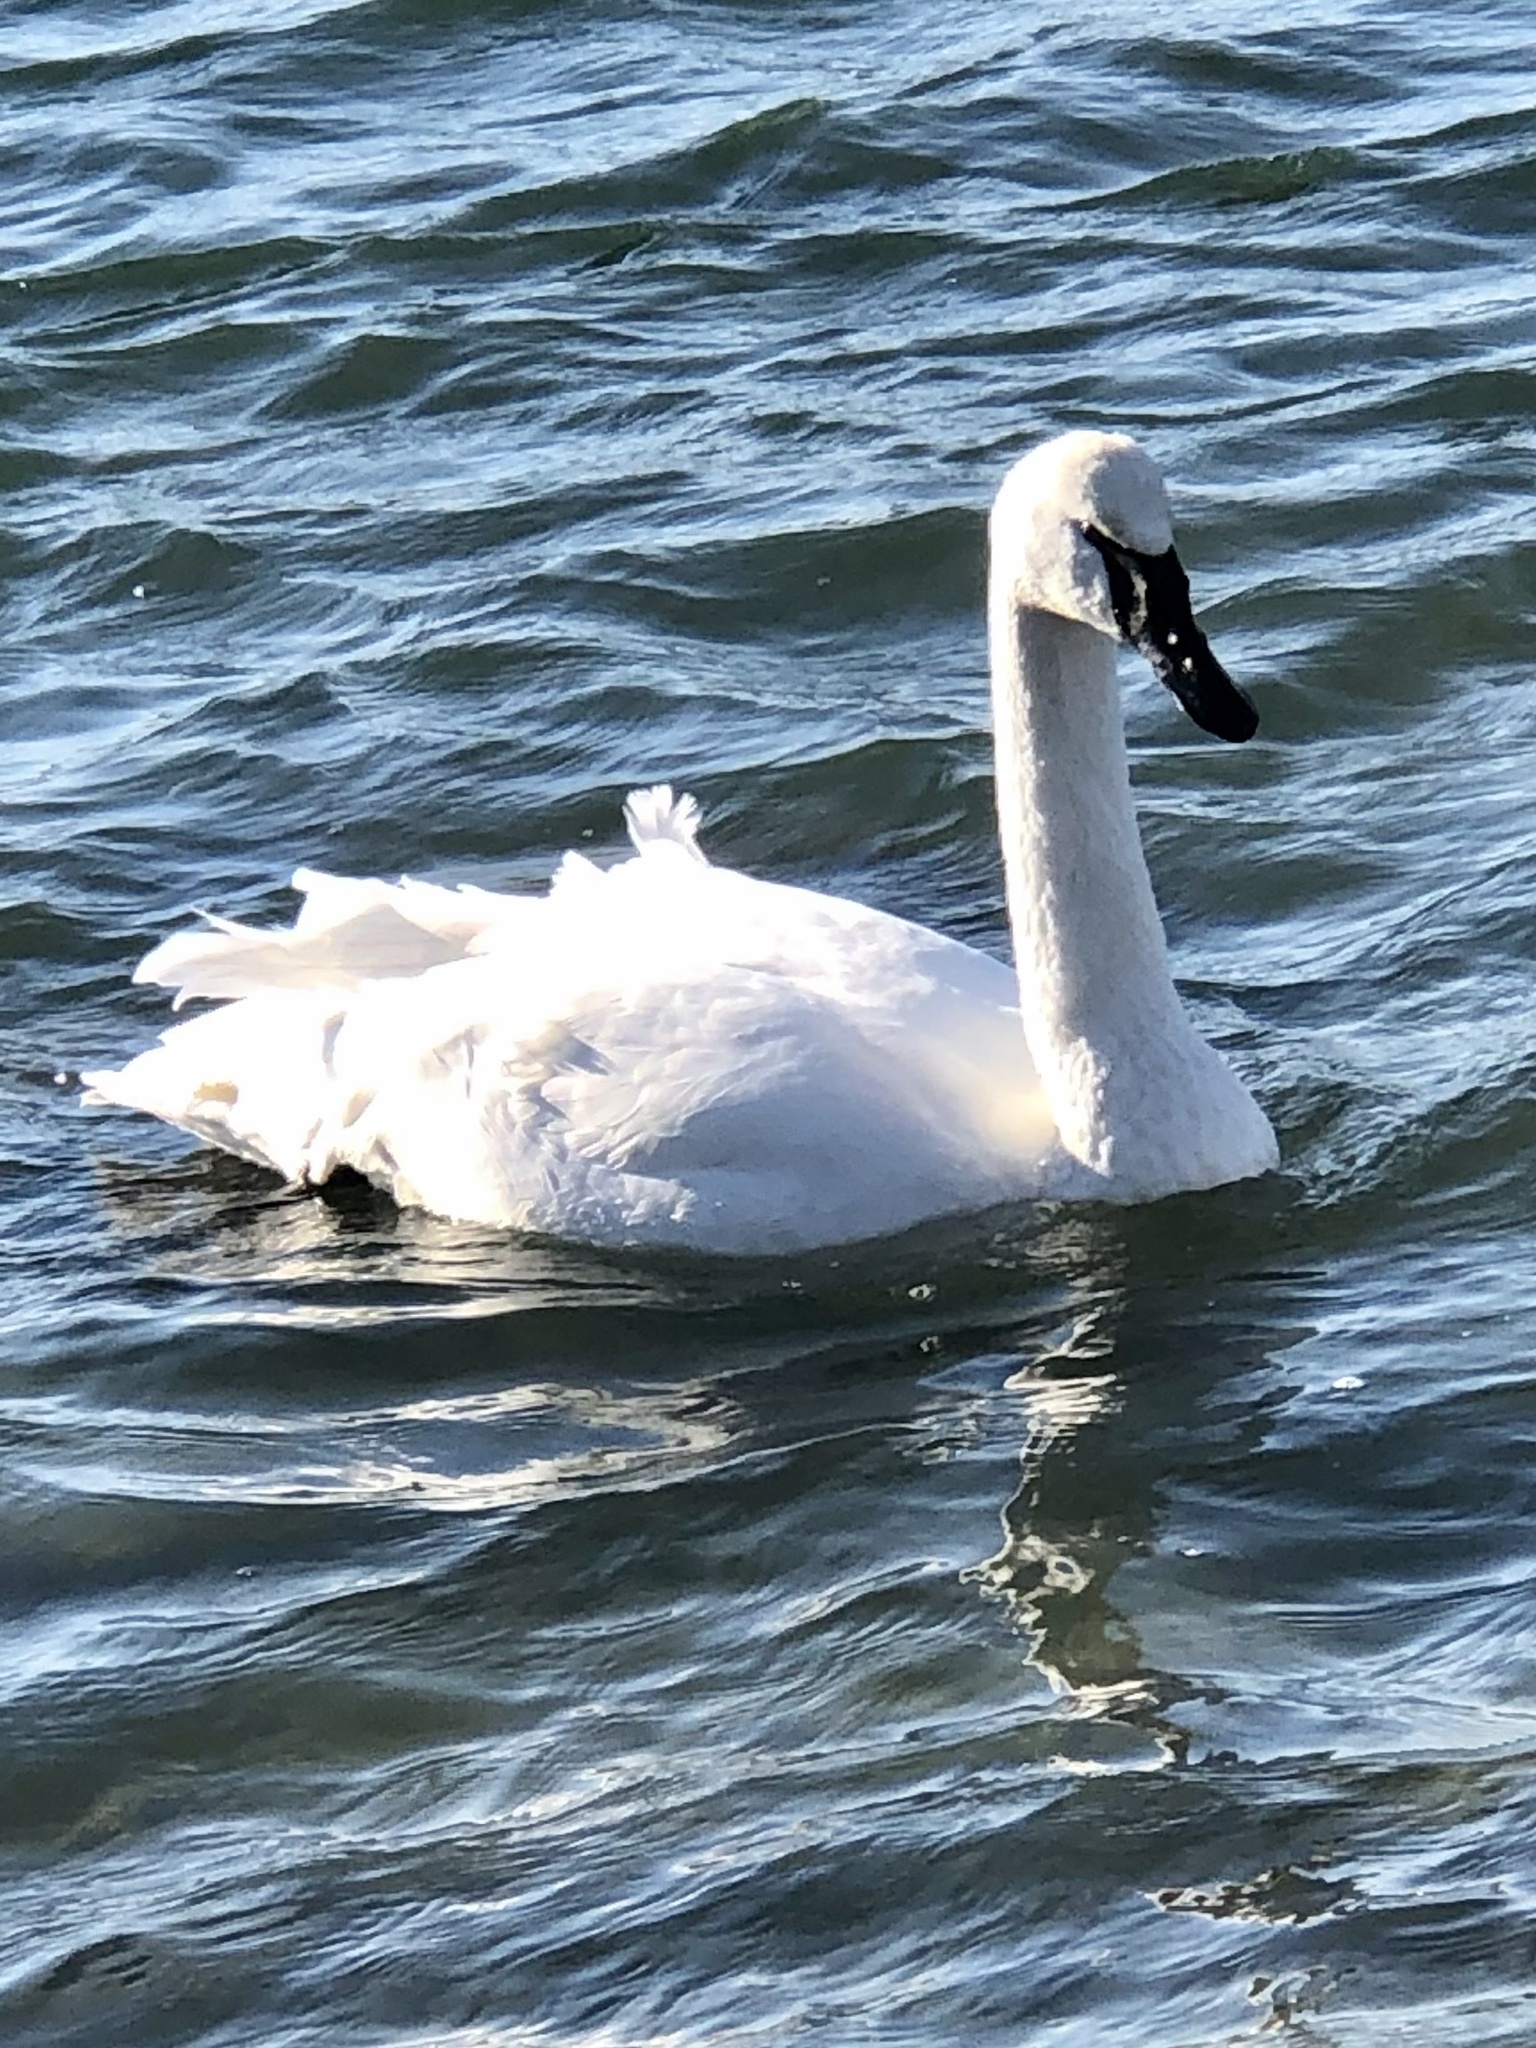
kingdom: Animalia
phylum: Chordata
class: Aves
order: Anseriformes
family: Anatidae
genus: Cygnus
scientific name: Cygnus buccinator
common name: Trumpeter swan
